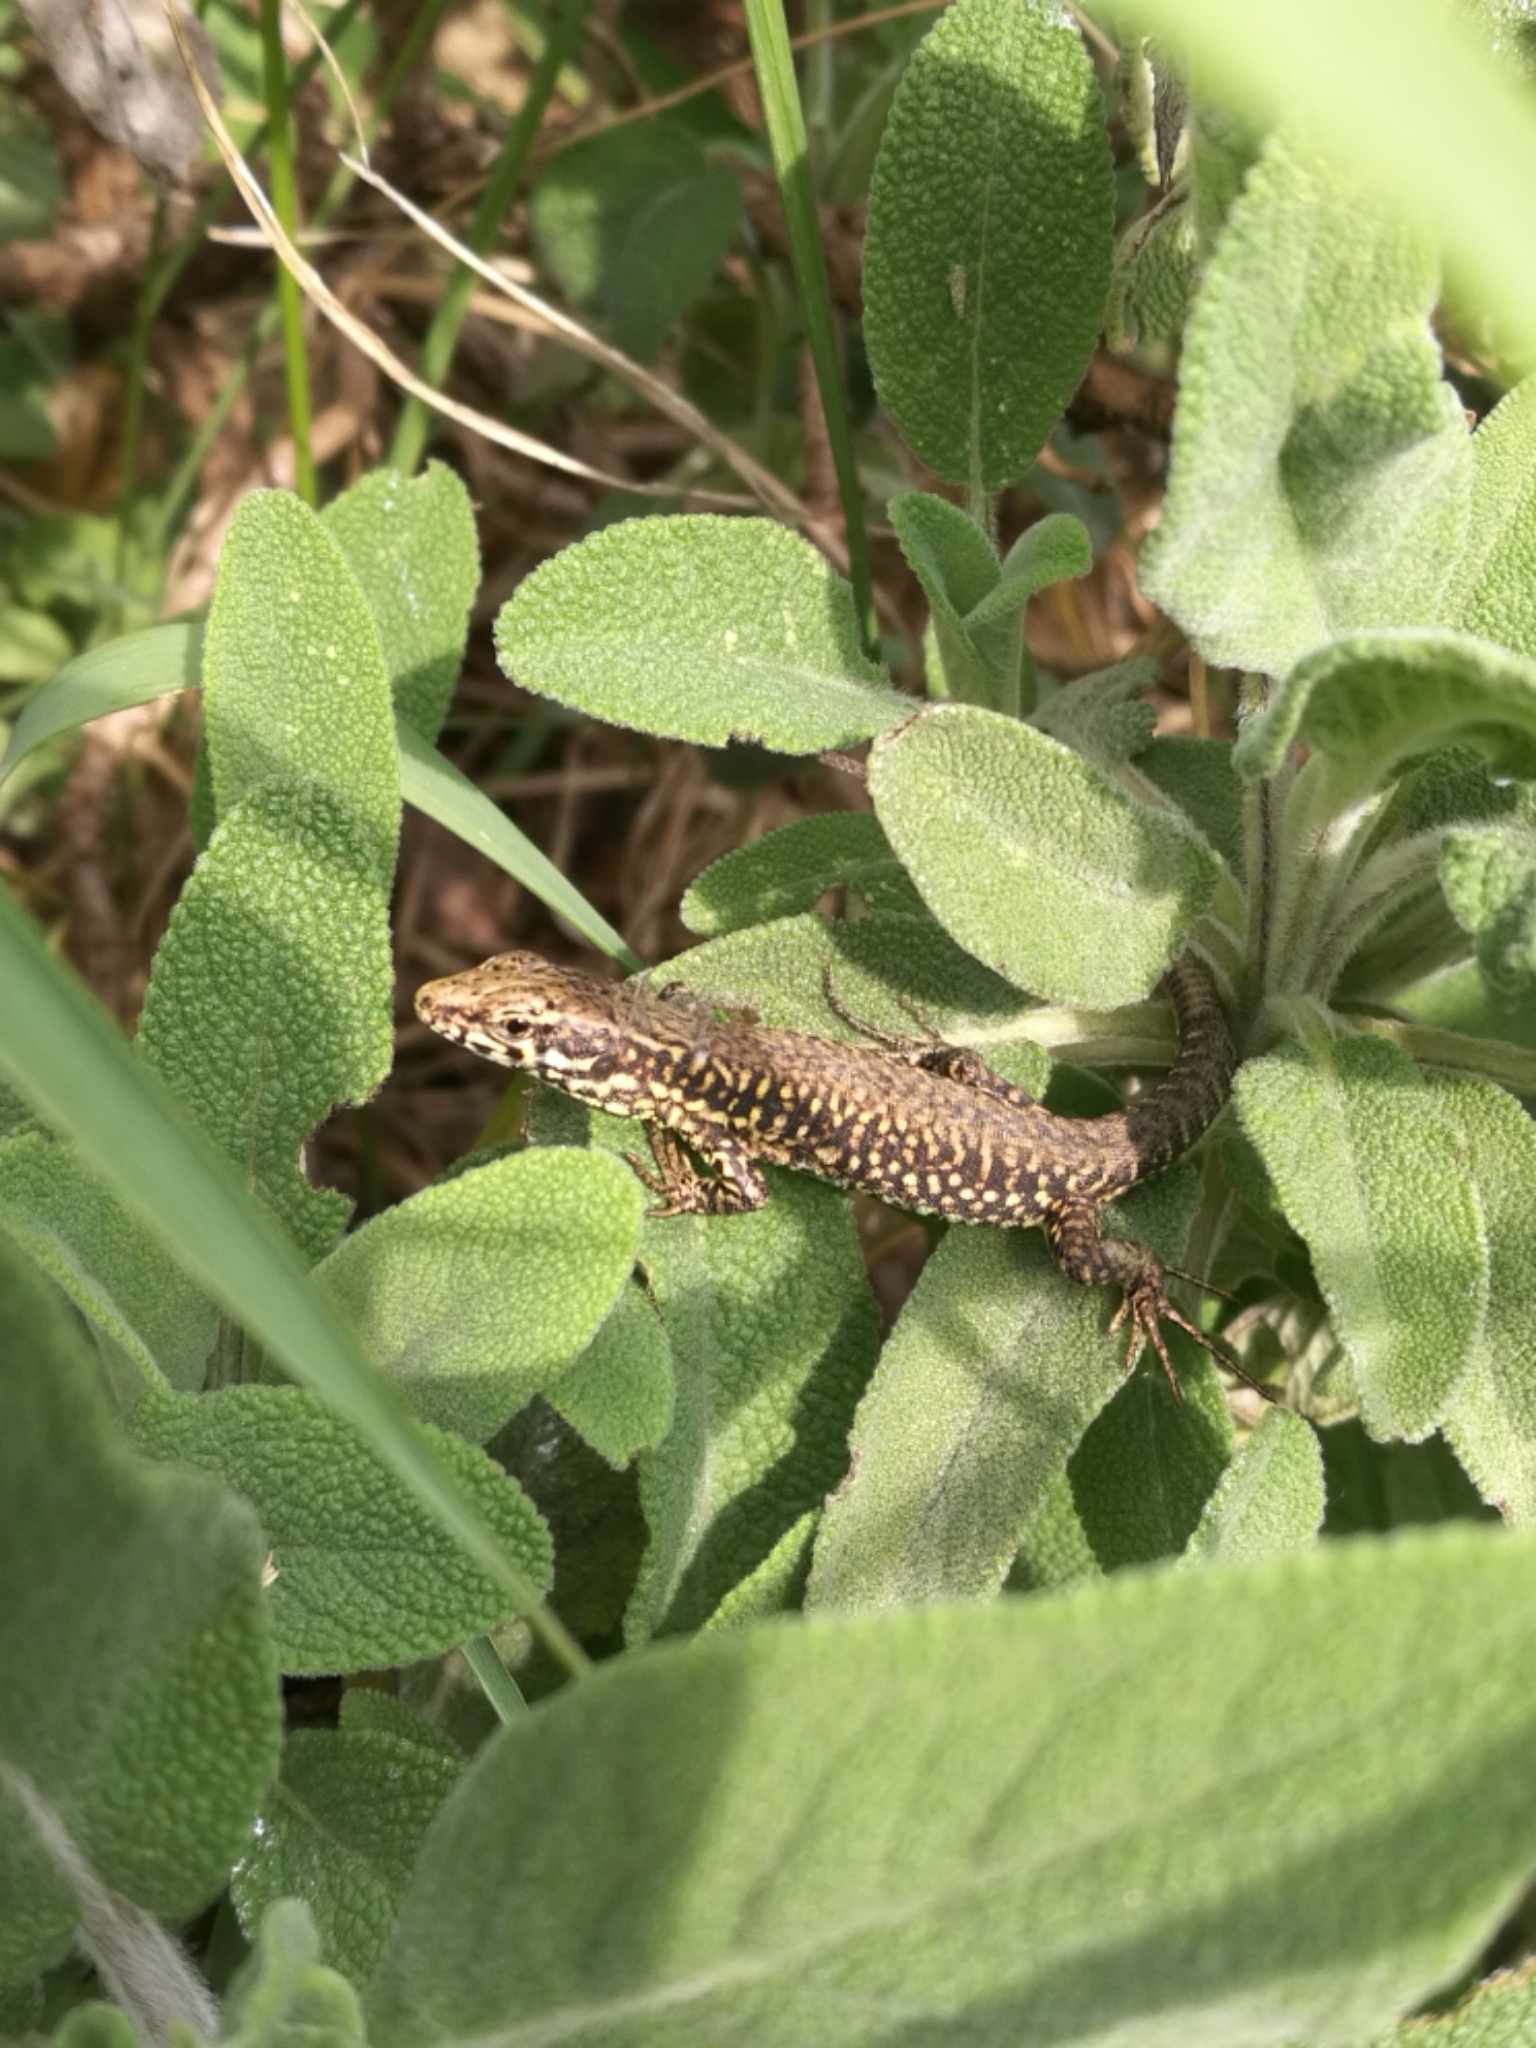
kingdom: Animalia
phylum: Chordata
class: Squamata
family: Lacertidae
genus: Podarcis
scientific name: Podarcis muralis
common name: Common wall lizard
